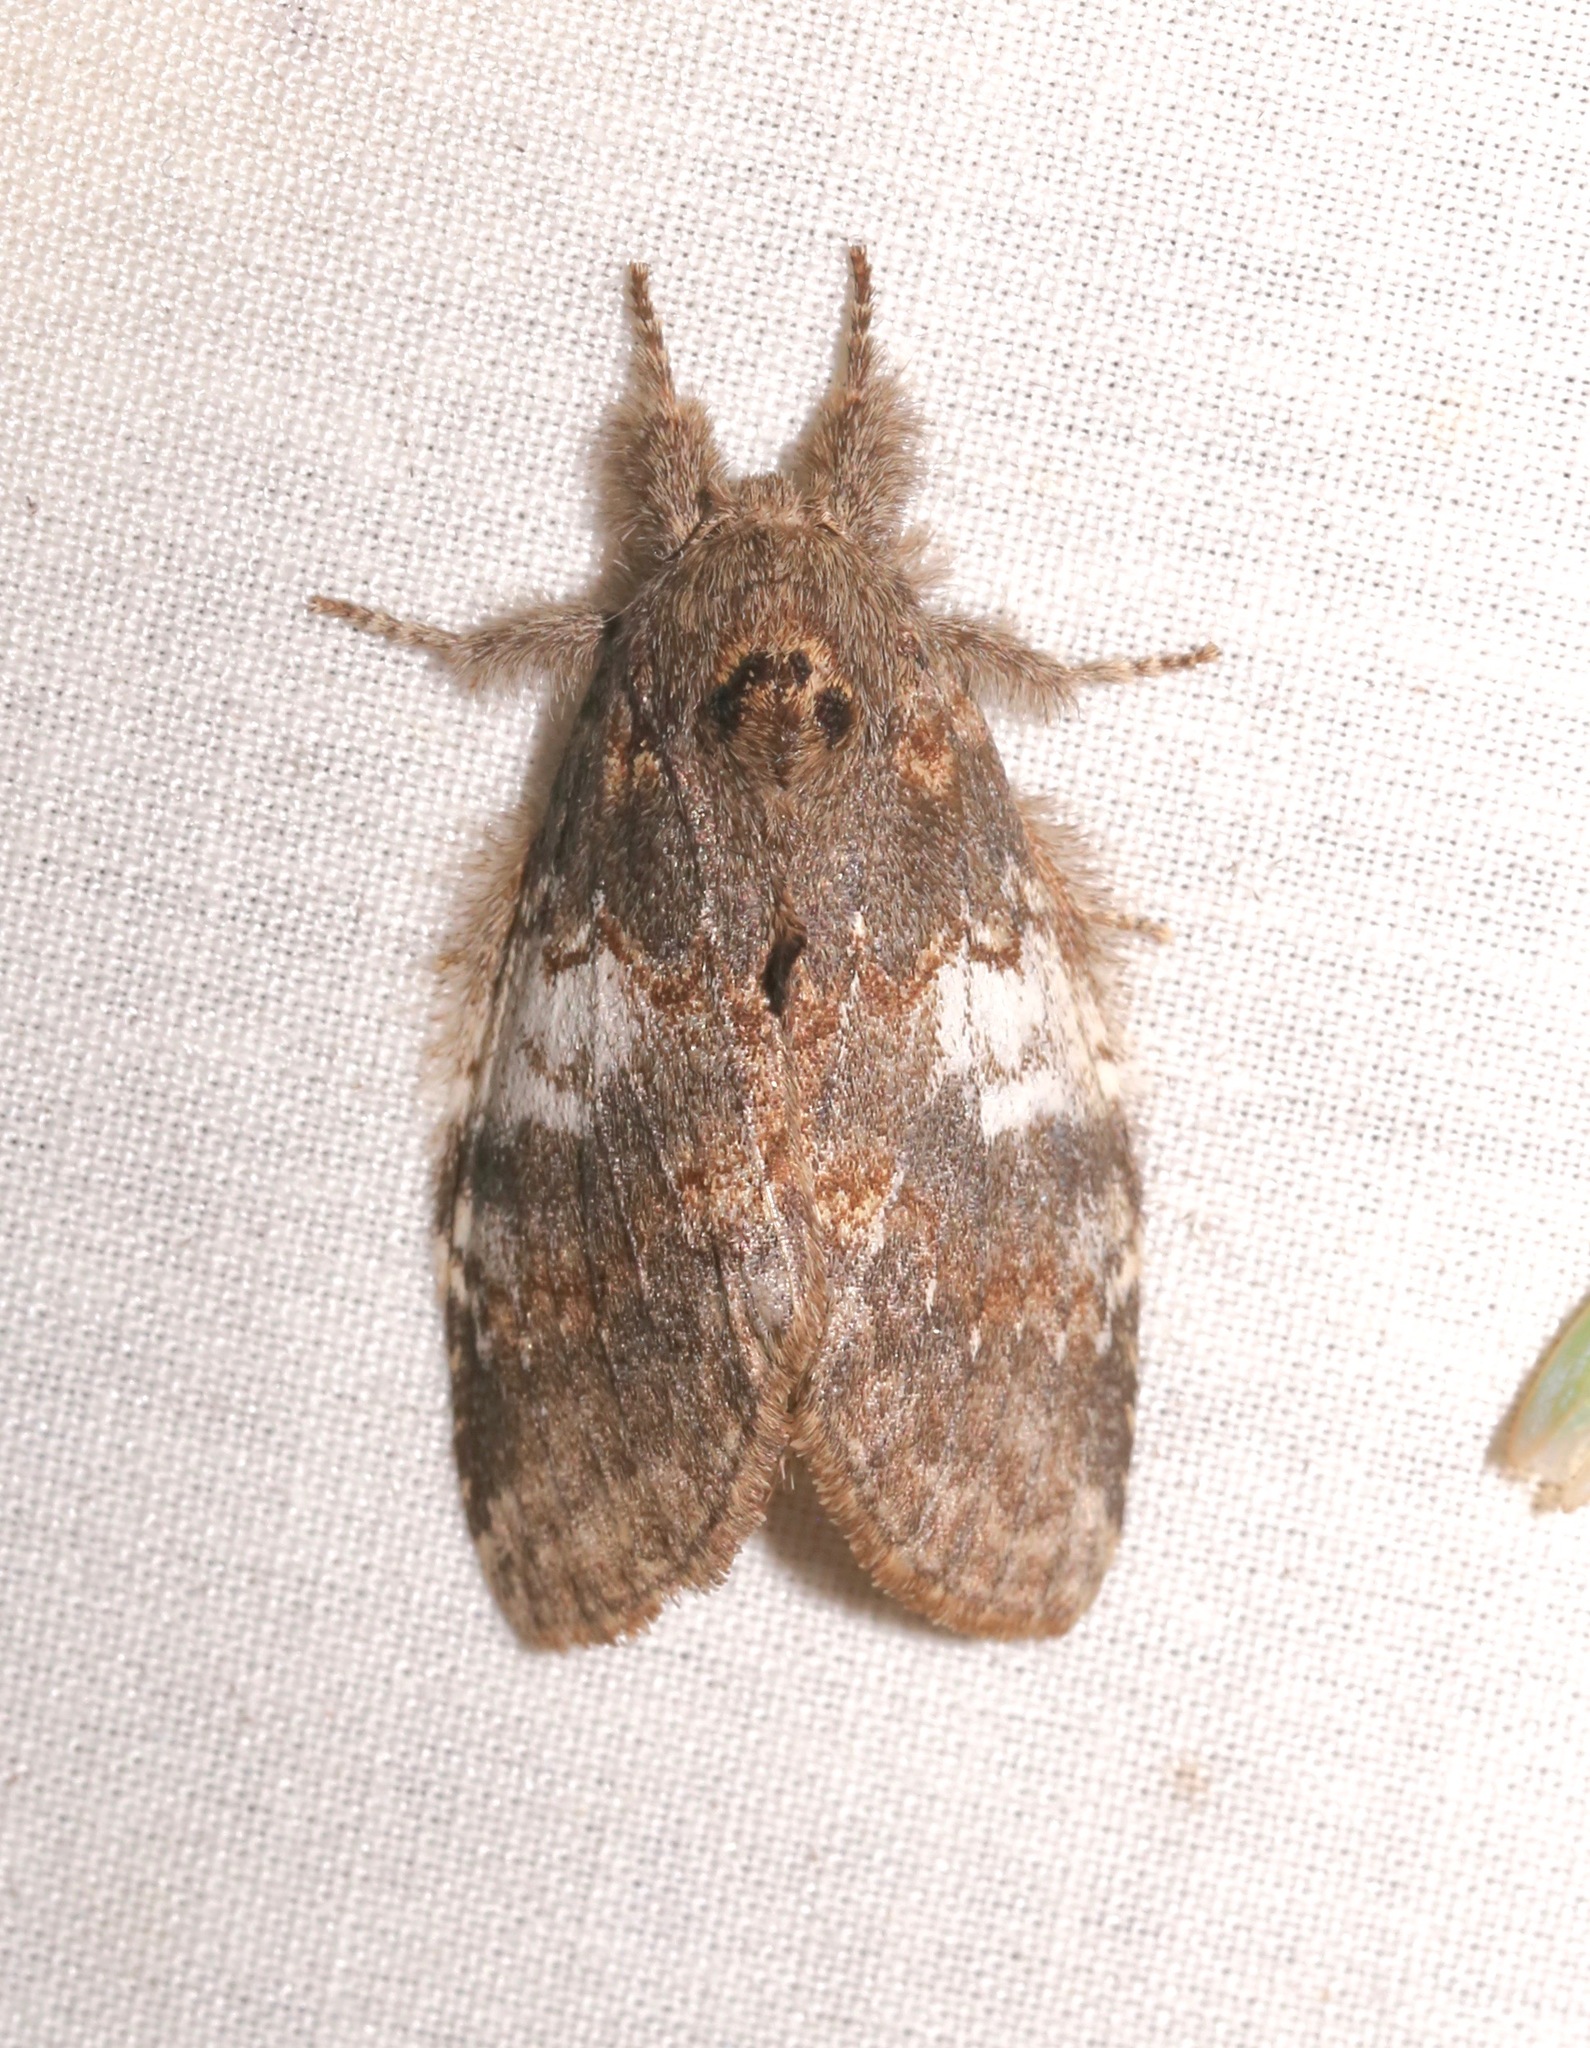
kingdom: Animalia
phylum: Arthropoda
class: Insecta
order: Lepidoptera
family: Notodontidae
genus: Peridea
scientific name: Peridea angulosa
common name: Angulose prominent
